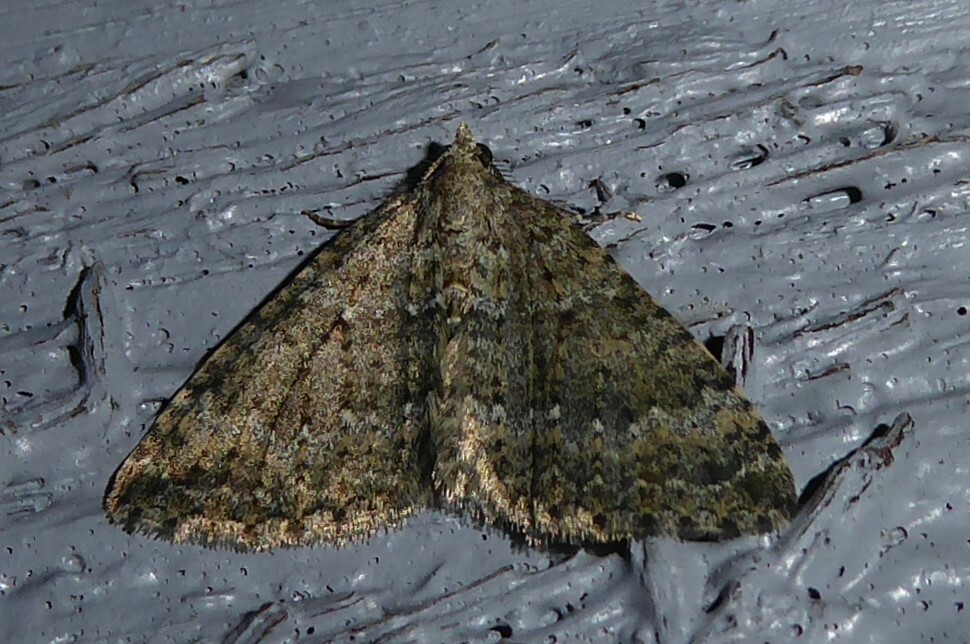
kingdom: Animalia
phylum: Arthropoda
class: Insecta
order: Lepidoptera
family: Geometridae
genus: Helastia
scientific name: Helastia corcularia
